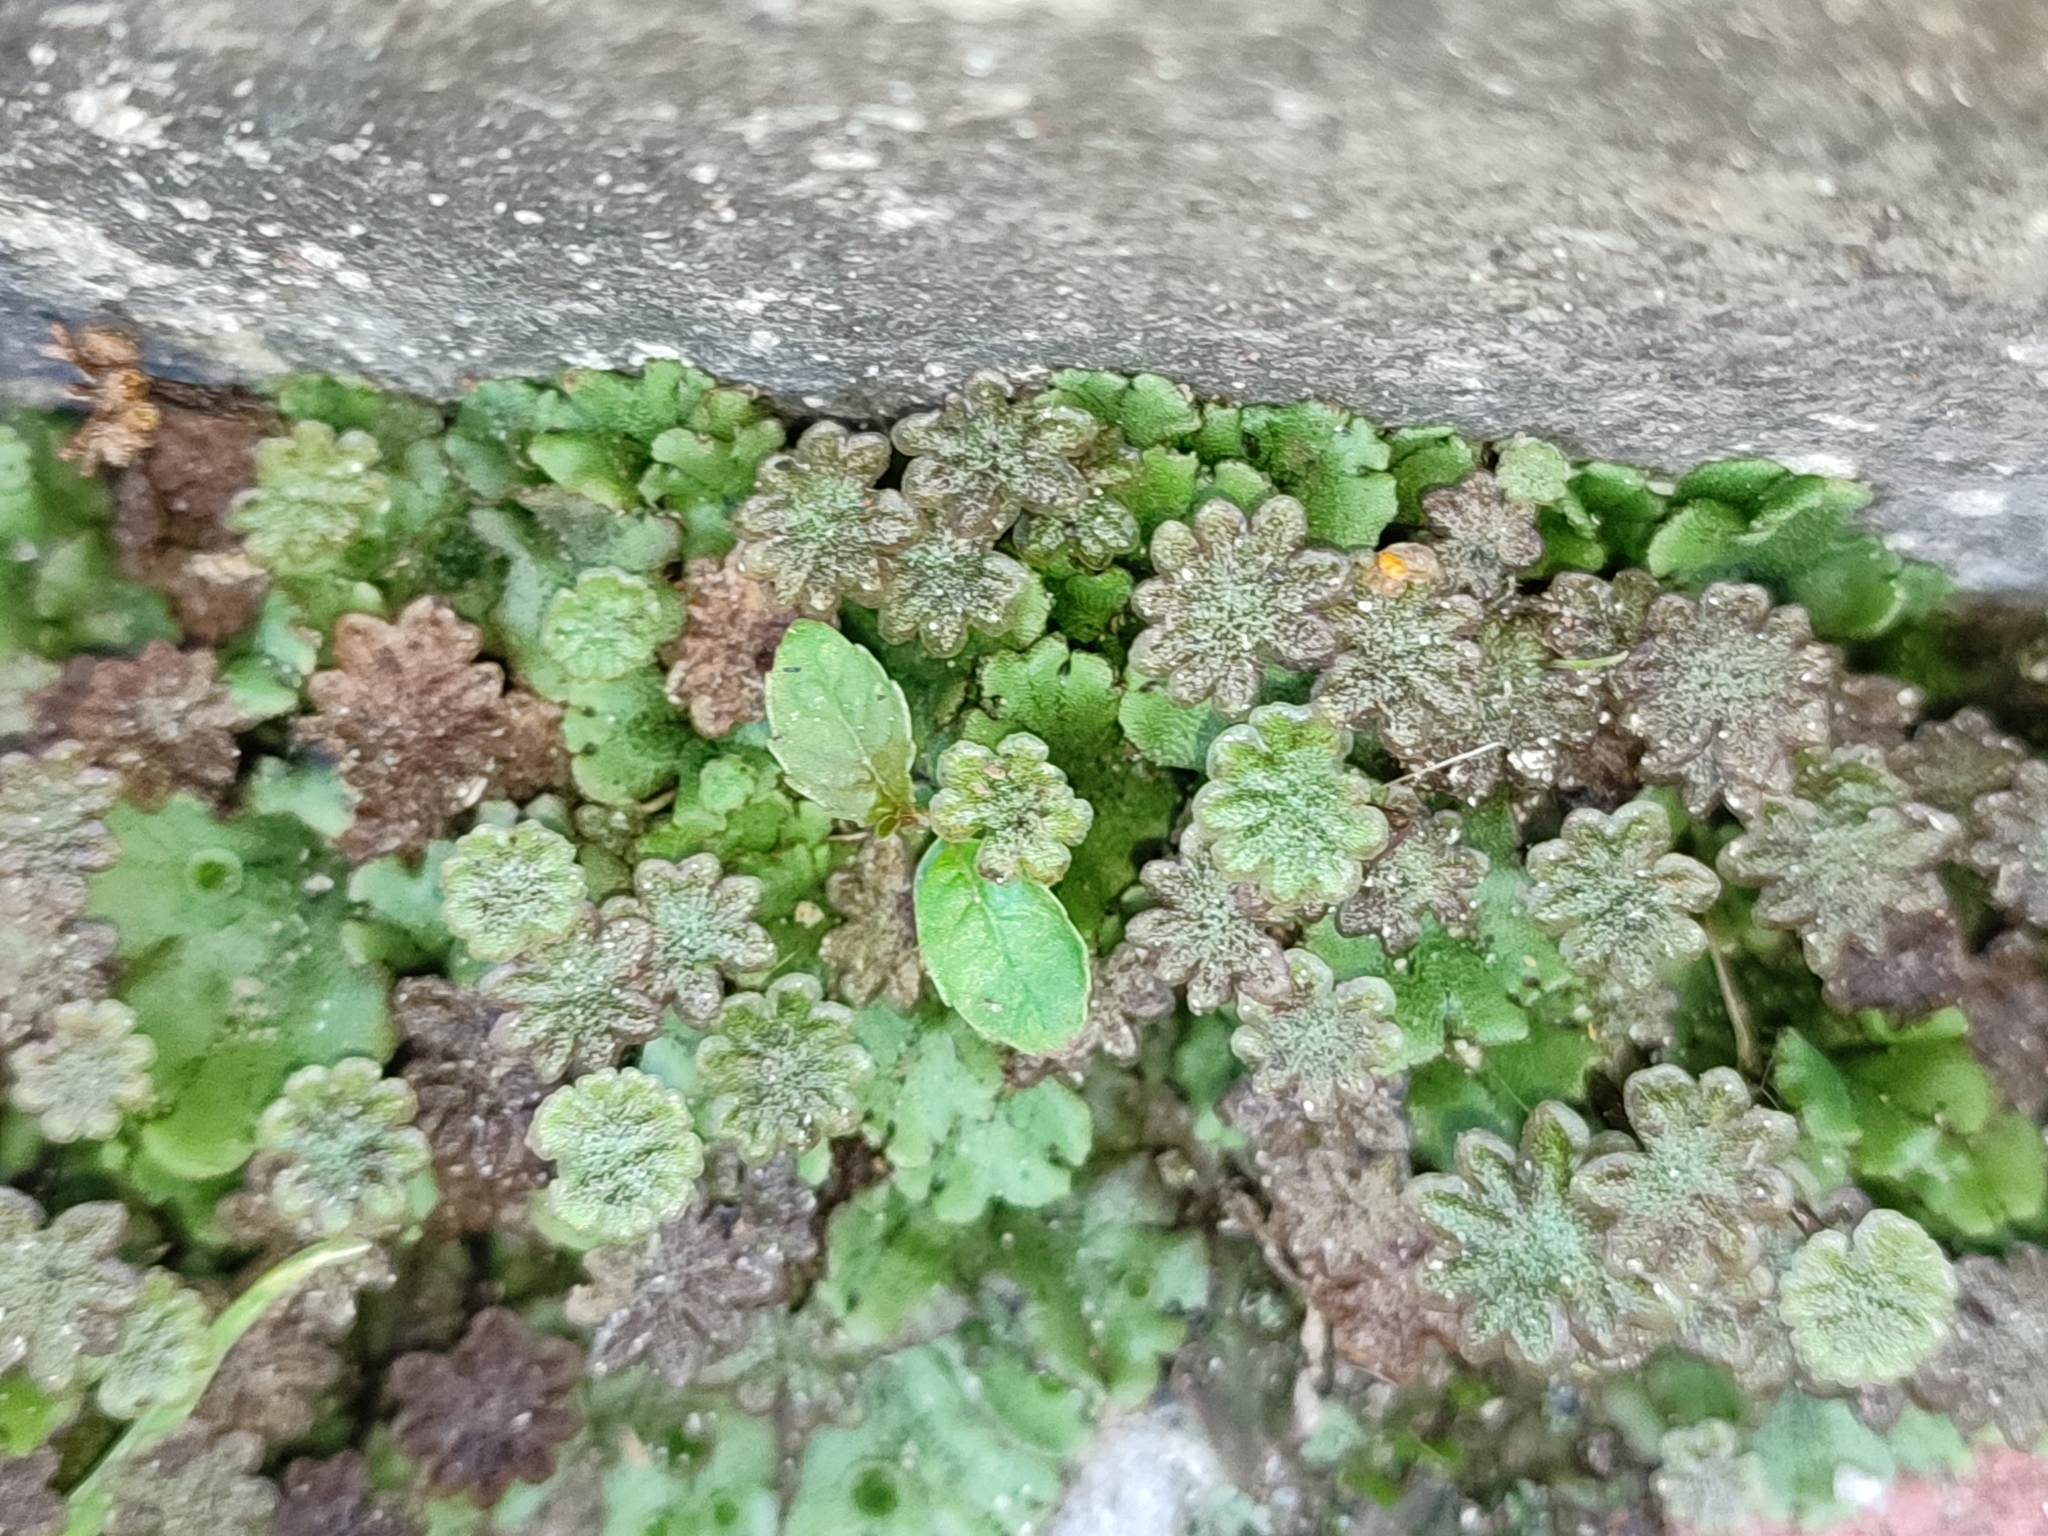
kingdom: Plantae
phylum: Marchantiophyta
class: Marchantiopsida
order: Marchantiales
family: Marchantiaceae
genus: Marchantia
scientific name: Marchantia polymorpha
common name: Common liverwort
